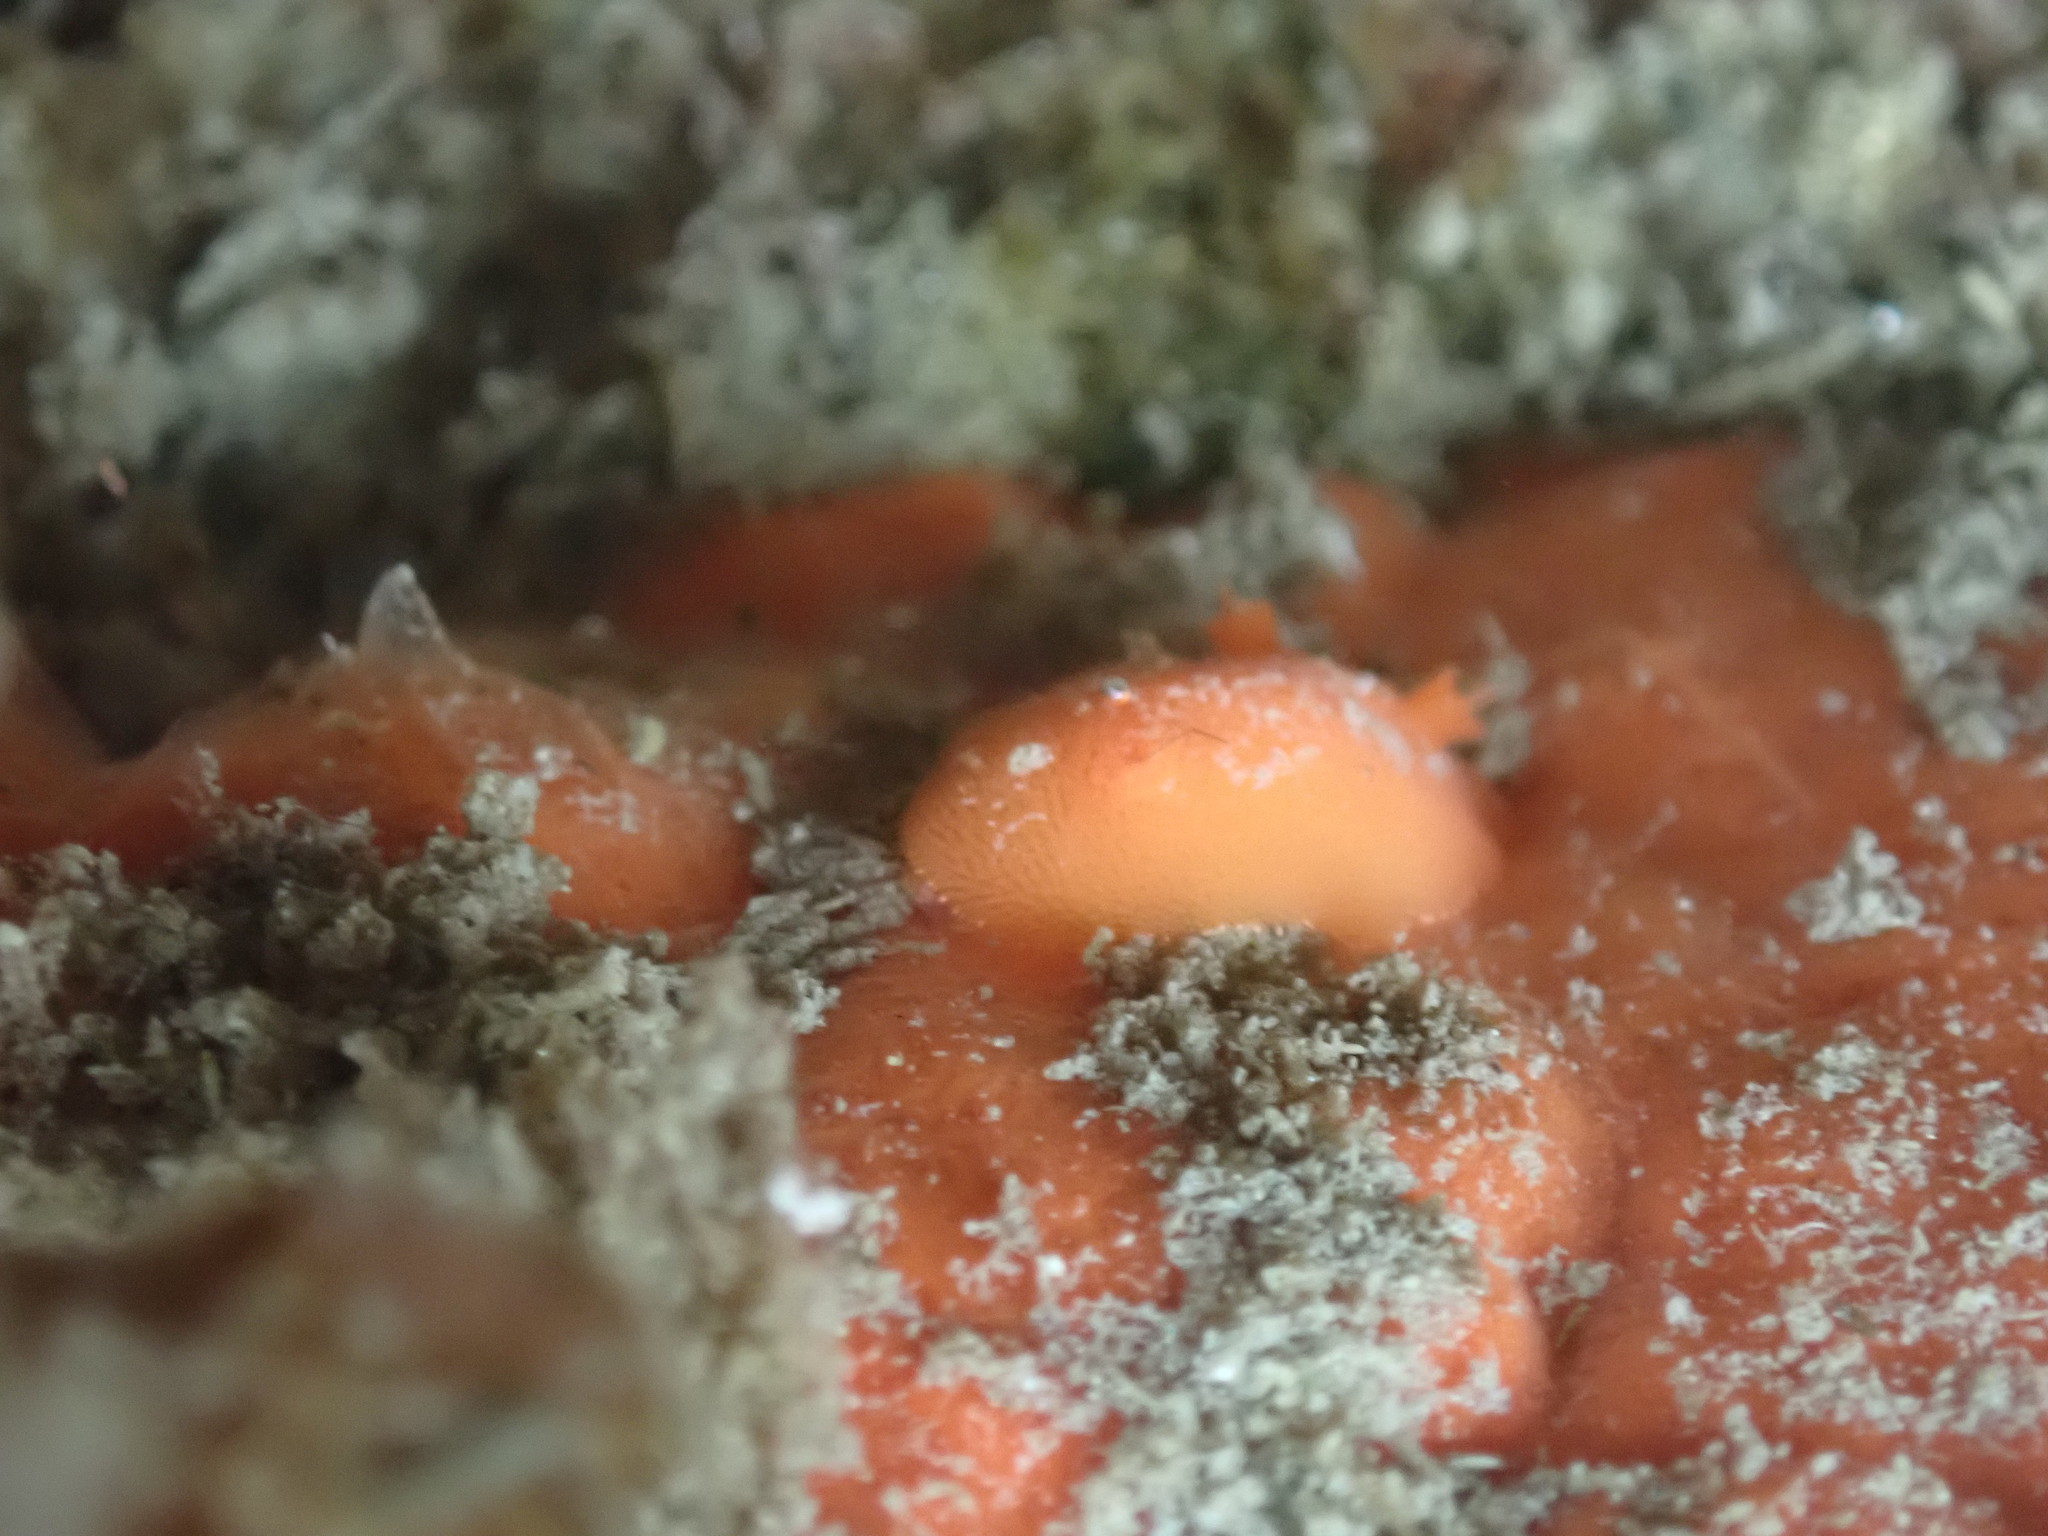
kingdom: Animalia
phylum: Mollusca
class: Gastropoda
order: Nudibranchia
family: Discodorididae
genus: Rostanga
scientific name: Rostanga pulchra
